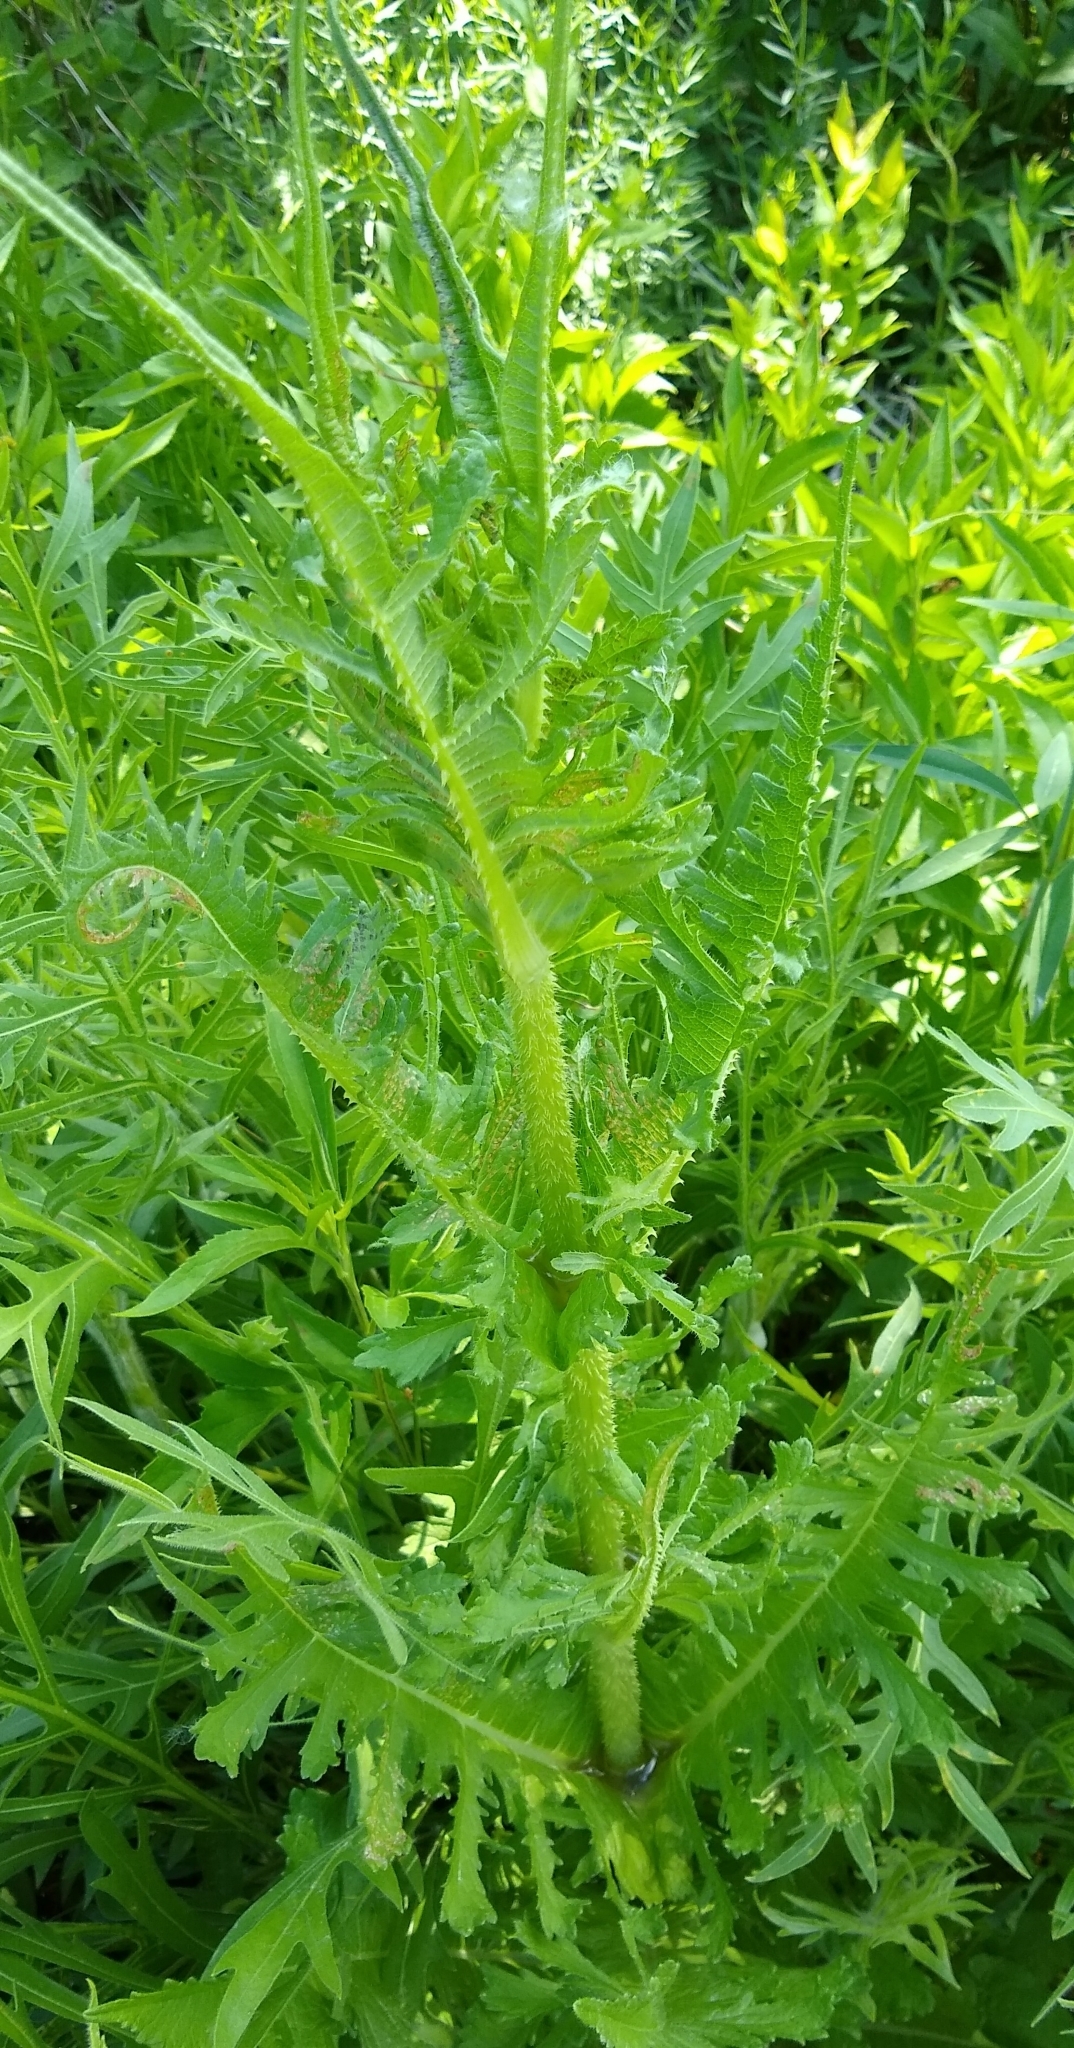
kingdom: Plantae
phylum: Tracheophyta
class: Magnoliopsida
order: Dipsacales
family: Caprifoliaceae
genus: Dipsacus
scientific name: Dipsacus laciniatus
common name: Cut-leaved teasel
